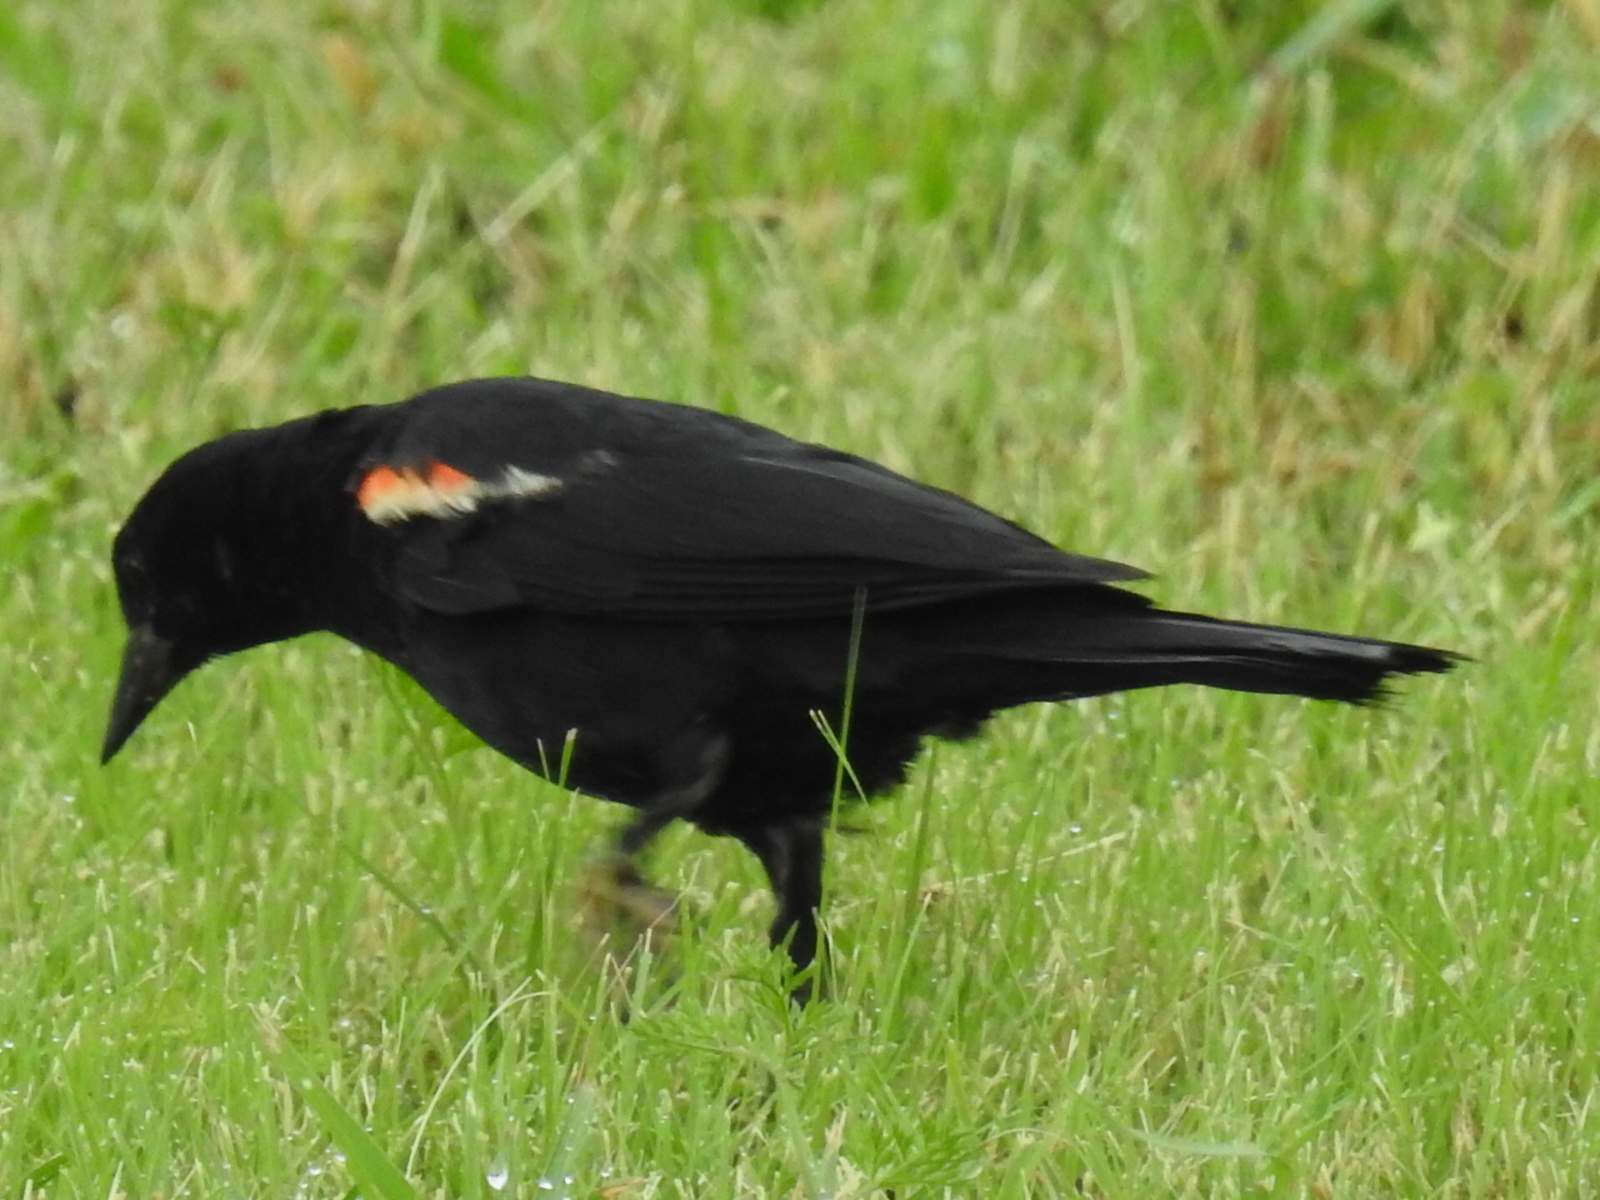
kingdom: Animalia
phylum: Chordata
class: Aves
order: Passeriformes
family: Icteridae
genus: Agelaius
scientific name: Agelaius phoeniceus
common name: Red-winged blackbird
